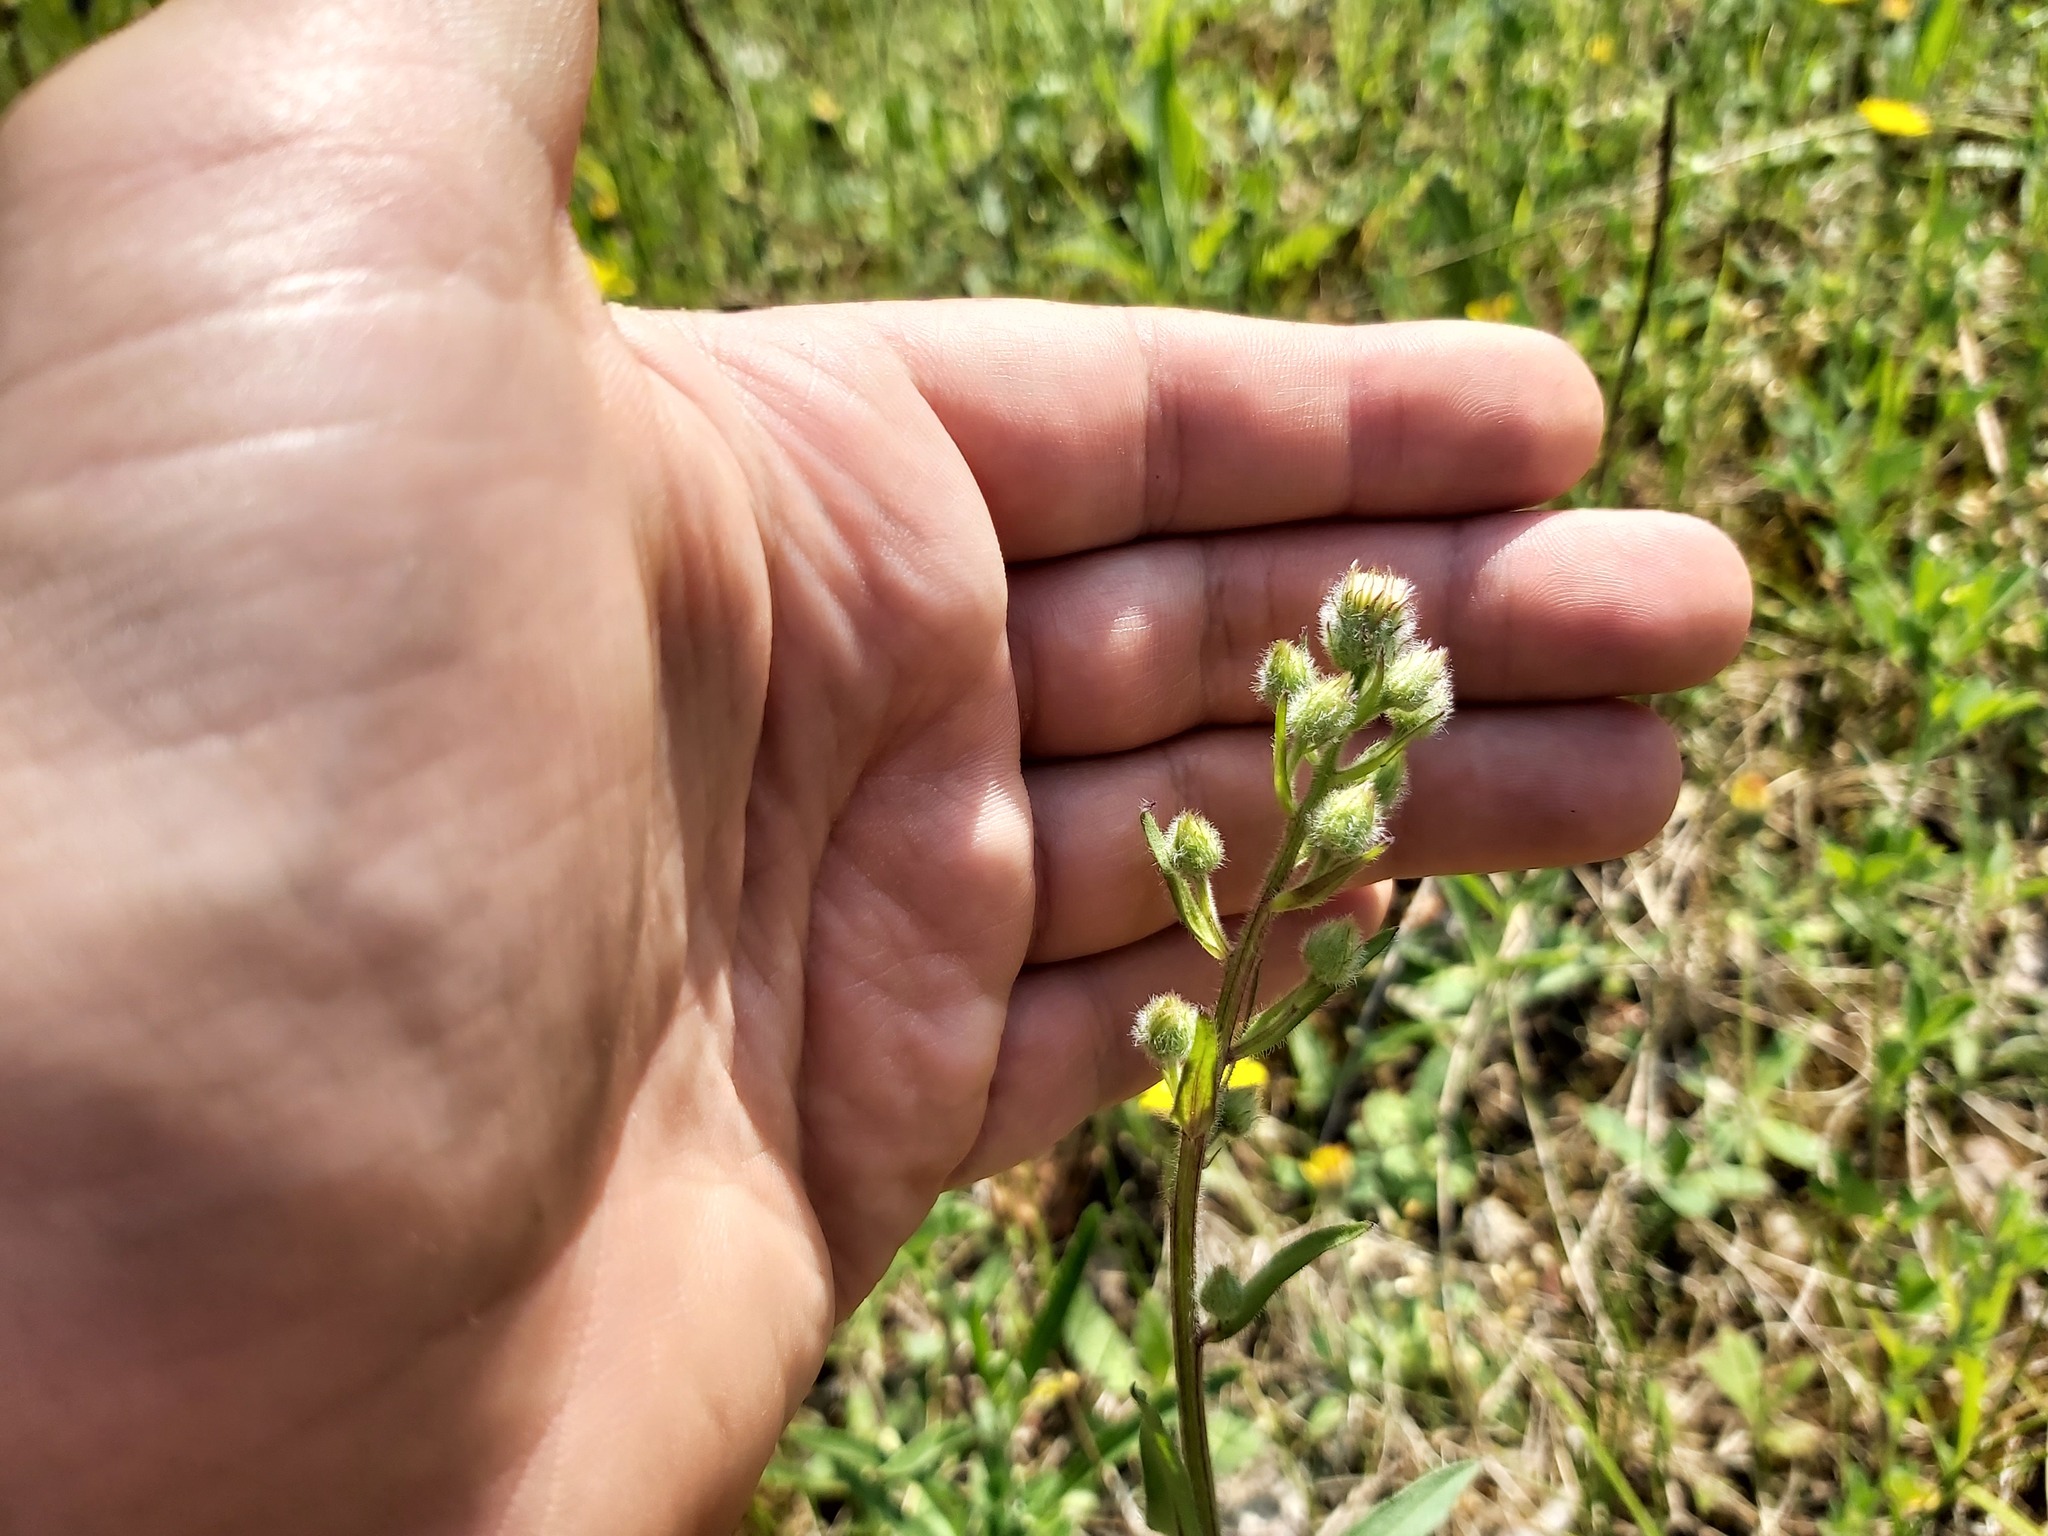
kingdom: Plantae
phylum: Tracheophyta
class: Magnoliopsida
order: Asterales
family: Asteraceae
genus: Erigeron
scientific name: Erigeron acris
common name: Blue fleabane
